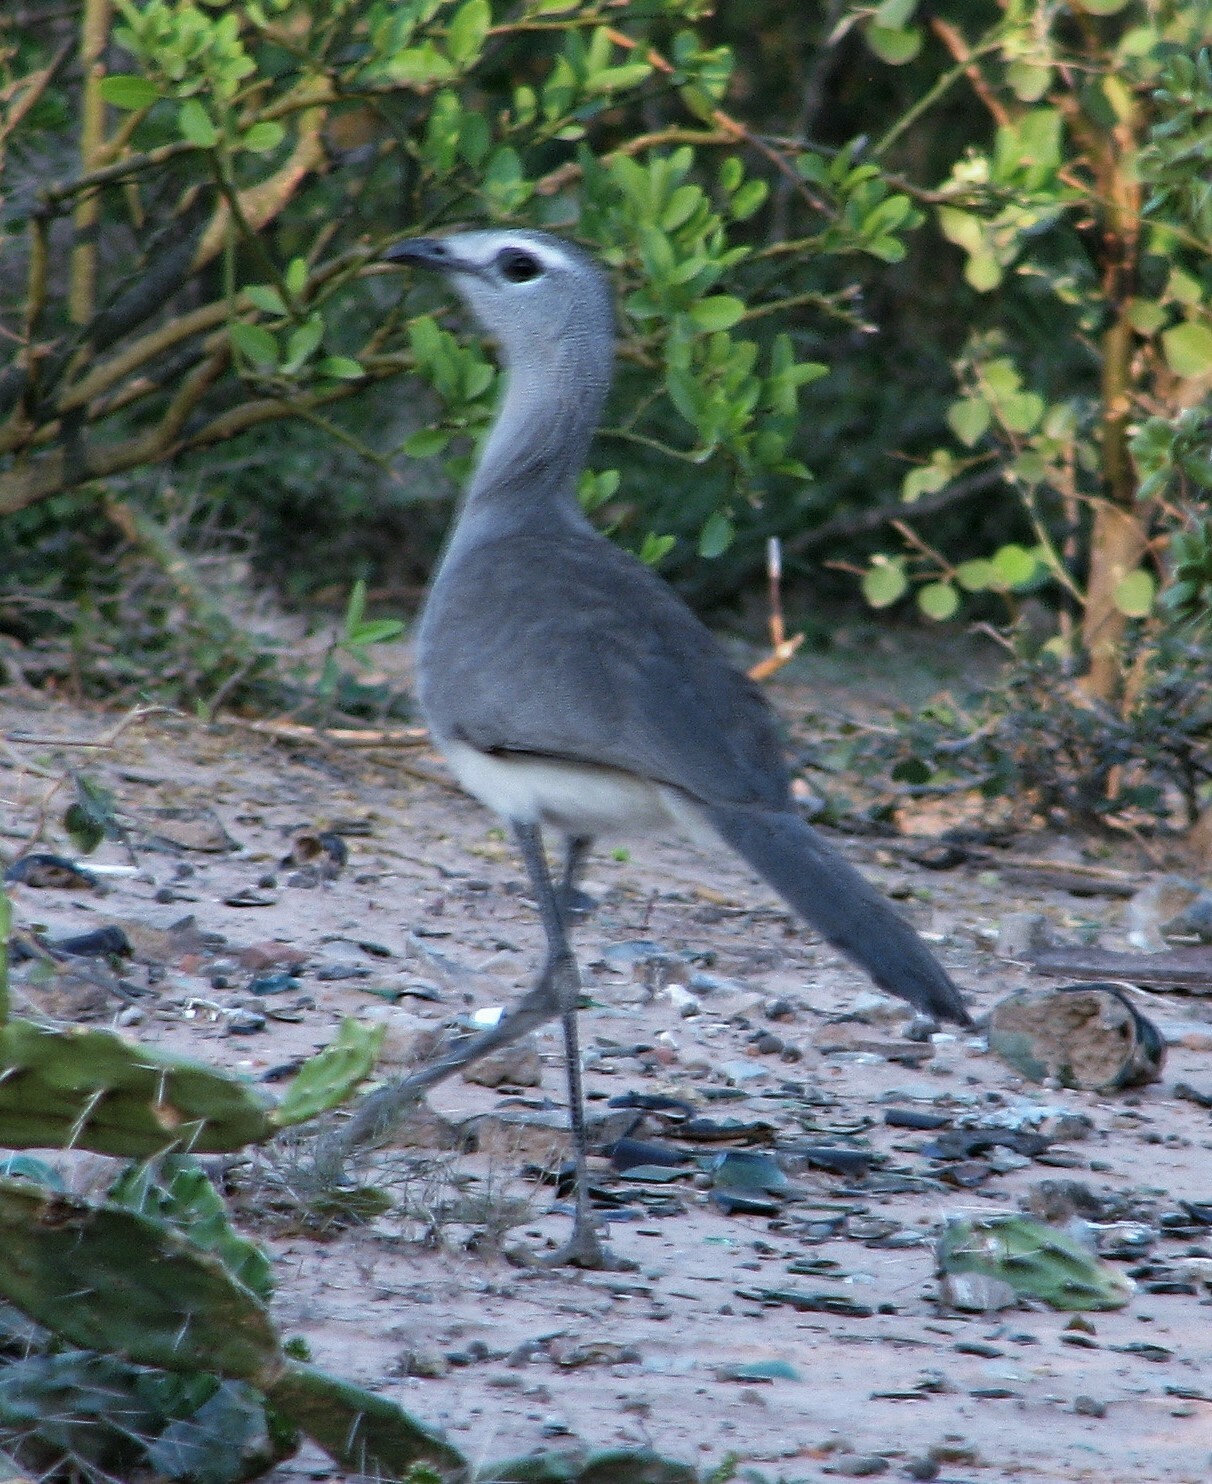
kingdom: Animalia
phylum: Chordata
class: Aves
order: Cariamiformes
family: Cariamidae
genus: Chunga
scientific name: Chunga burmeisteri
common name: Black-legged seriema
